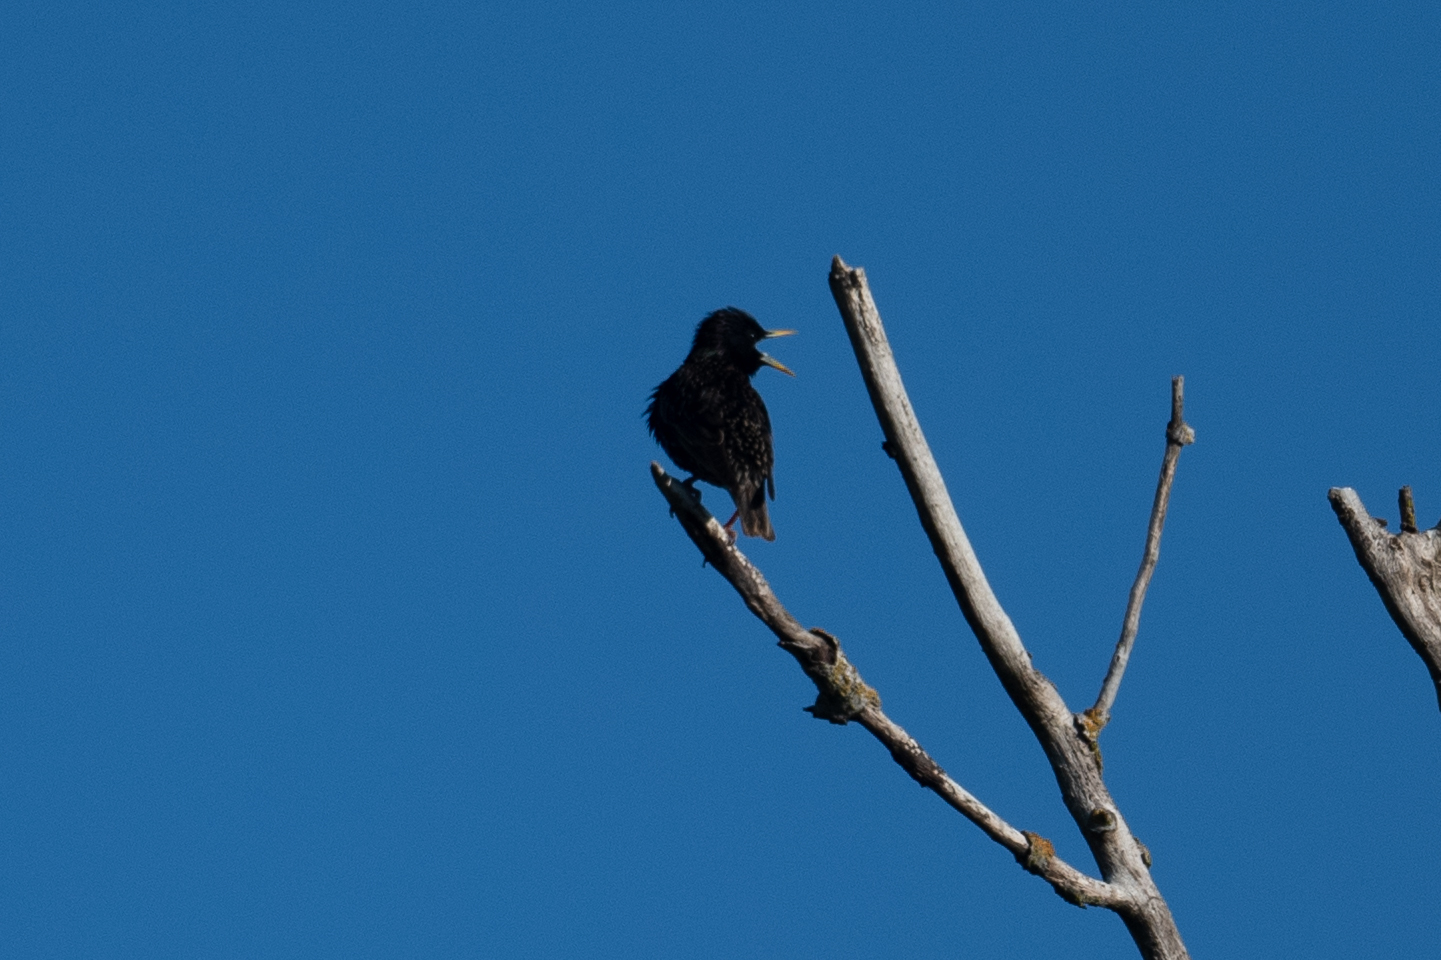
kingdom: Animalia
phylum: Chordata
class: Aves
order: Passeriformes
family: Sturnidae
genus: Sturnus
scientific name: Sturnus vulgaris
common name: Common starling
